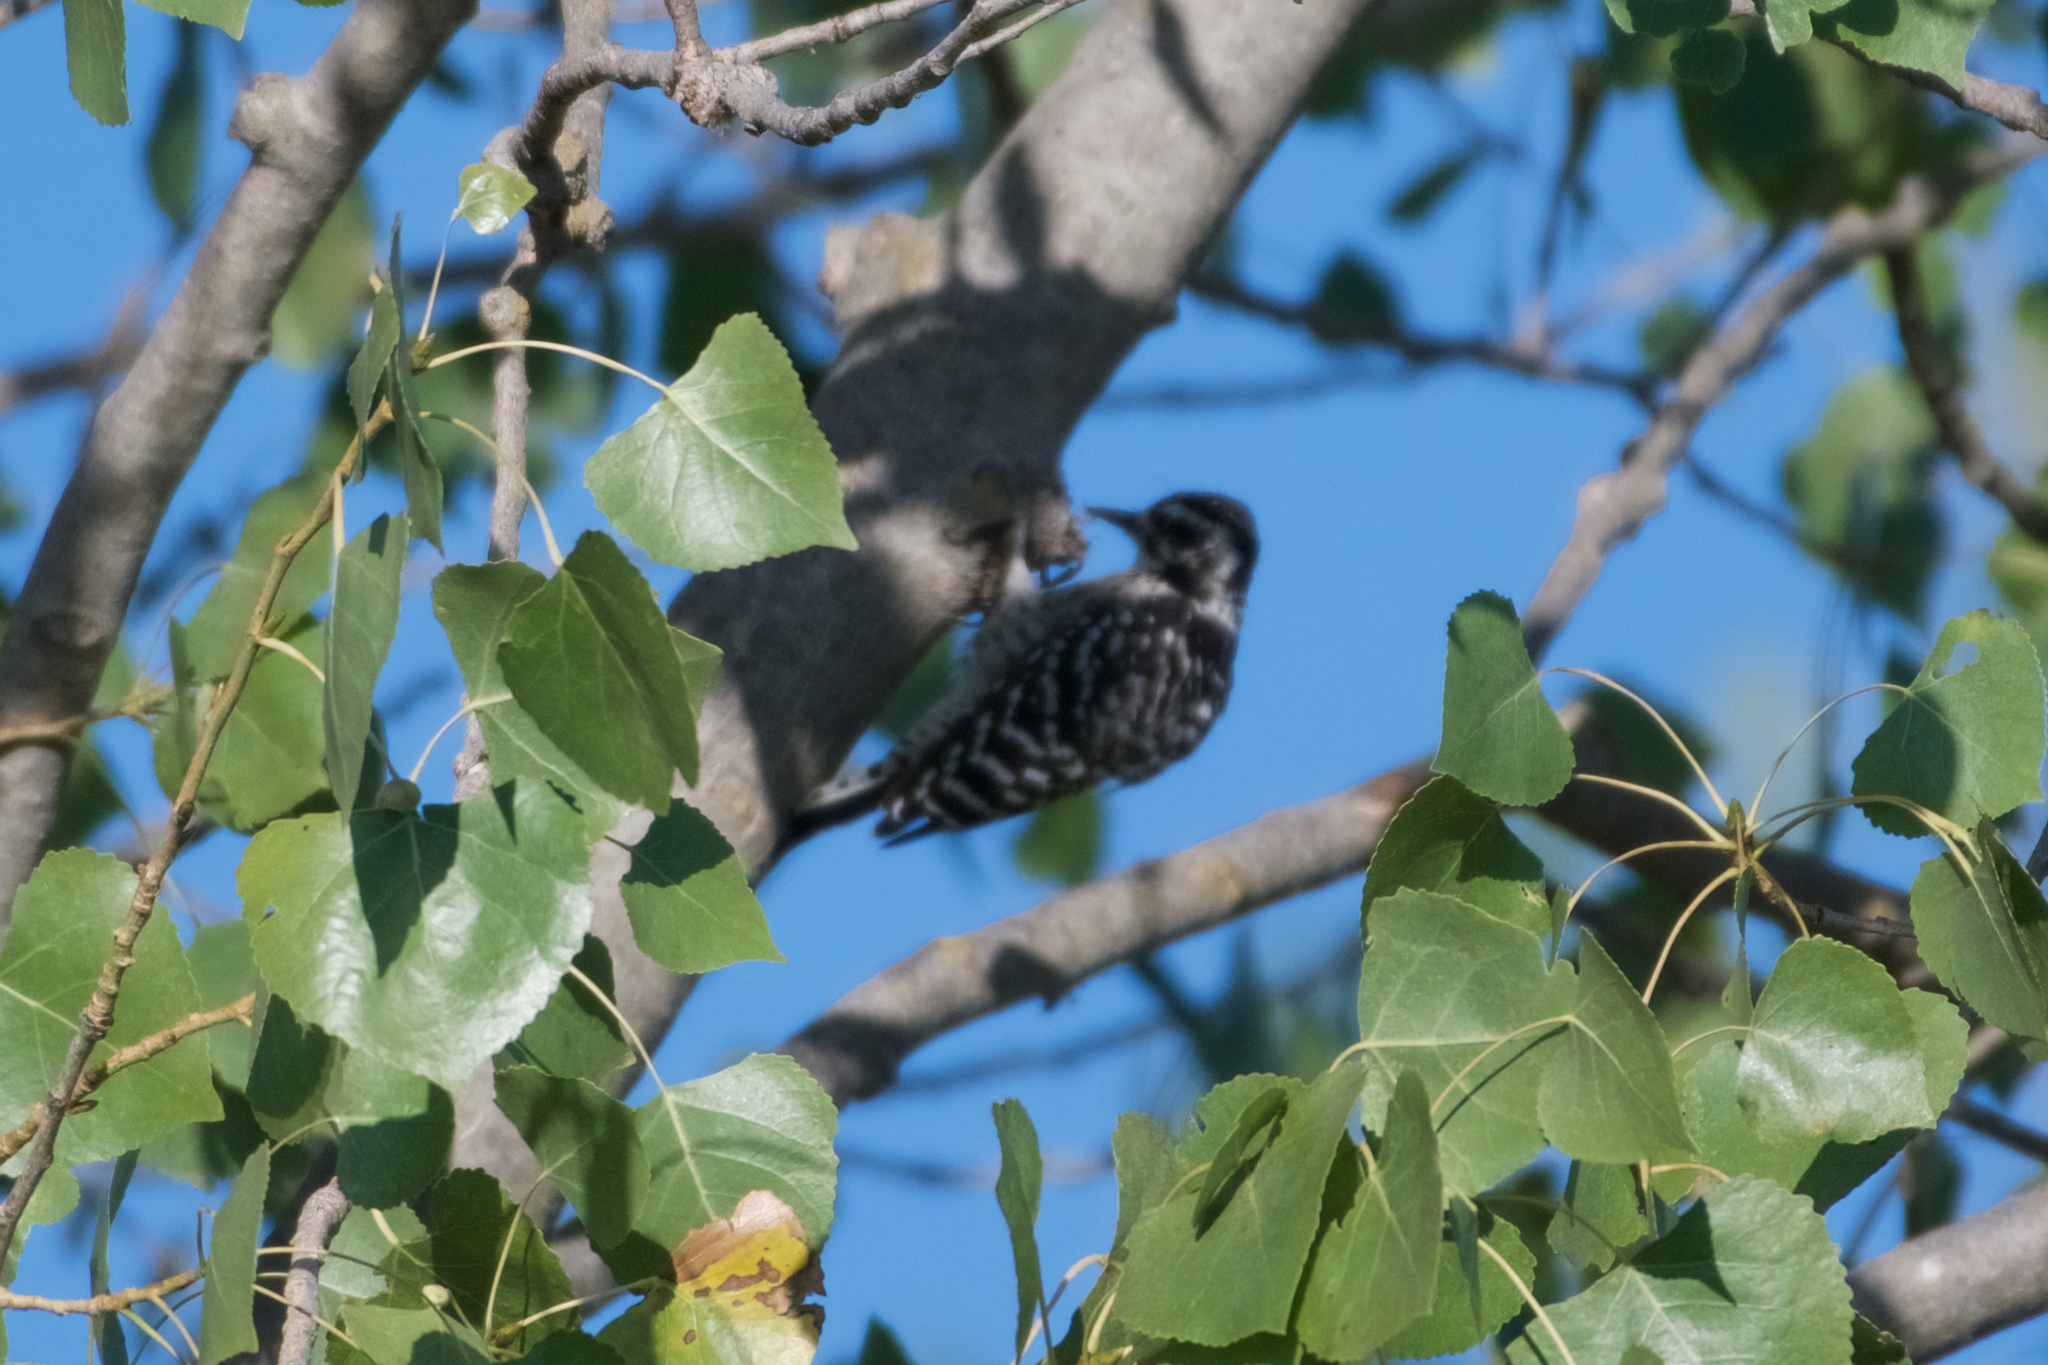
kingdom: Animalia
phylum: Chordata
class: Aves
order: Piciformes
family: Picidae
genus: Dryobates
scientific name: Dryobates nuttallii
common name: Nuttall's woodpecker
